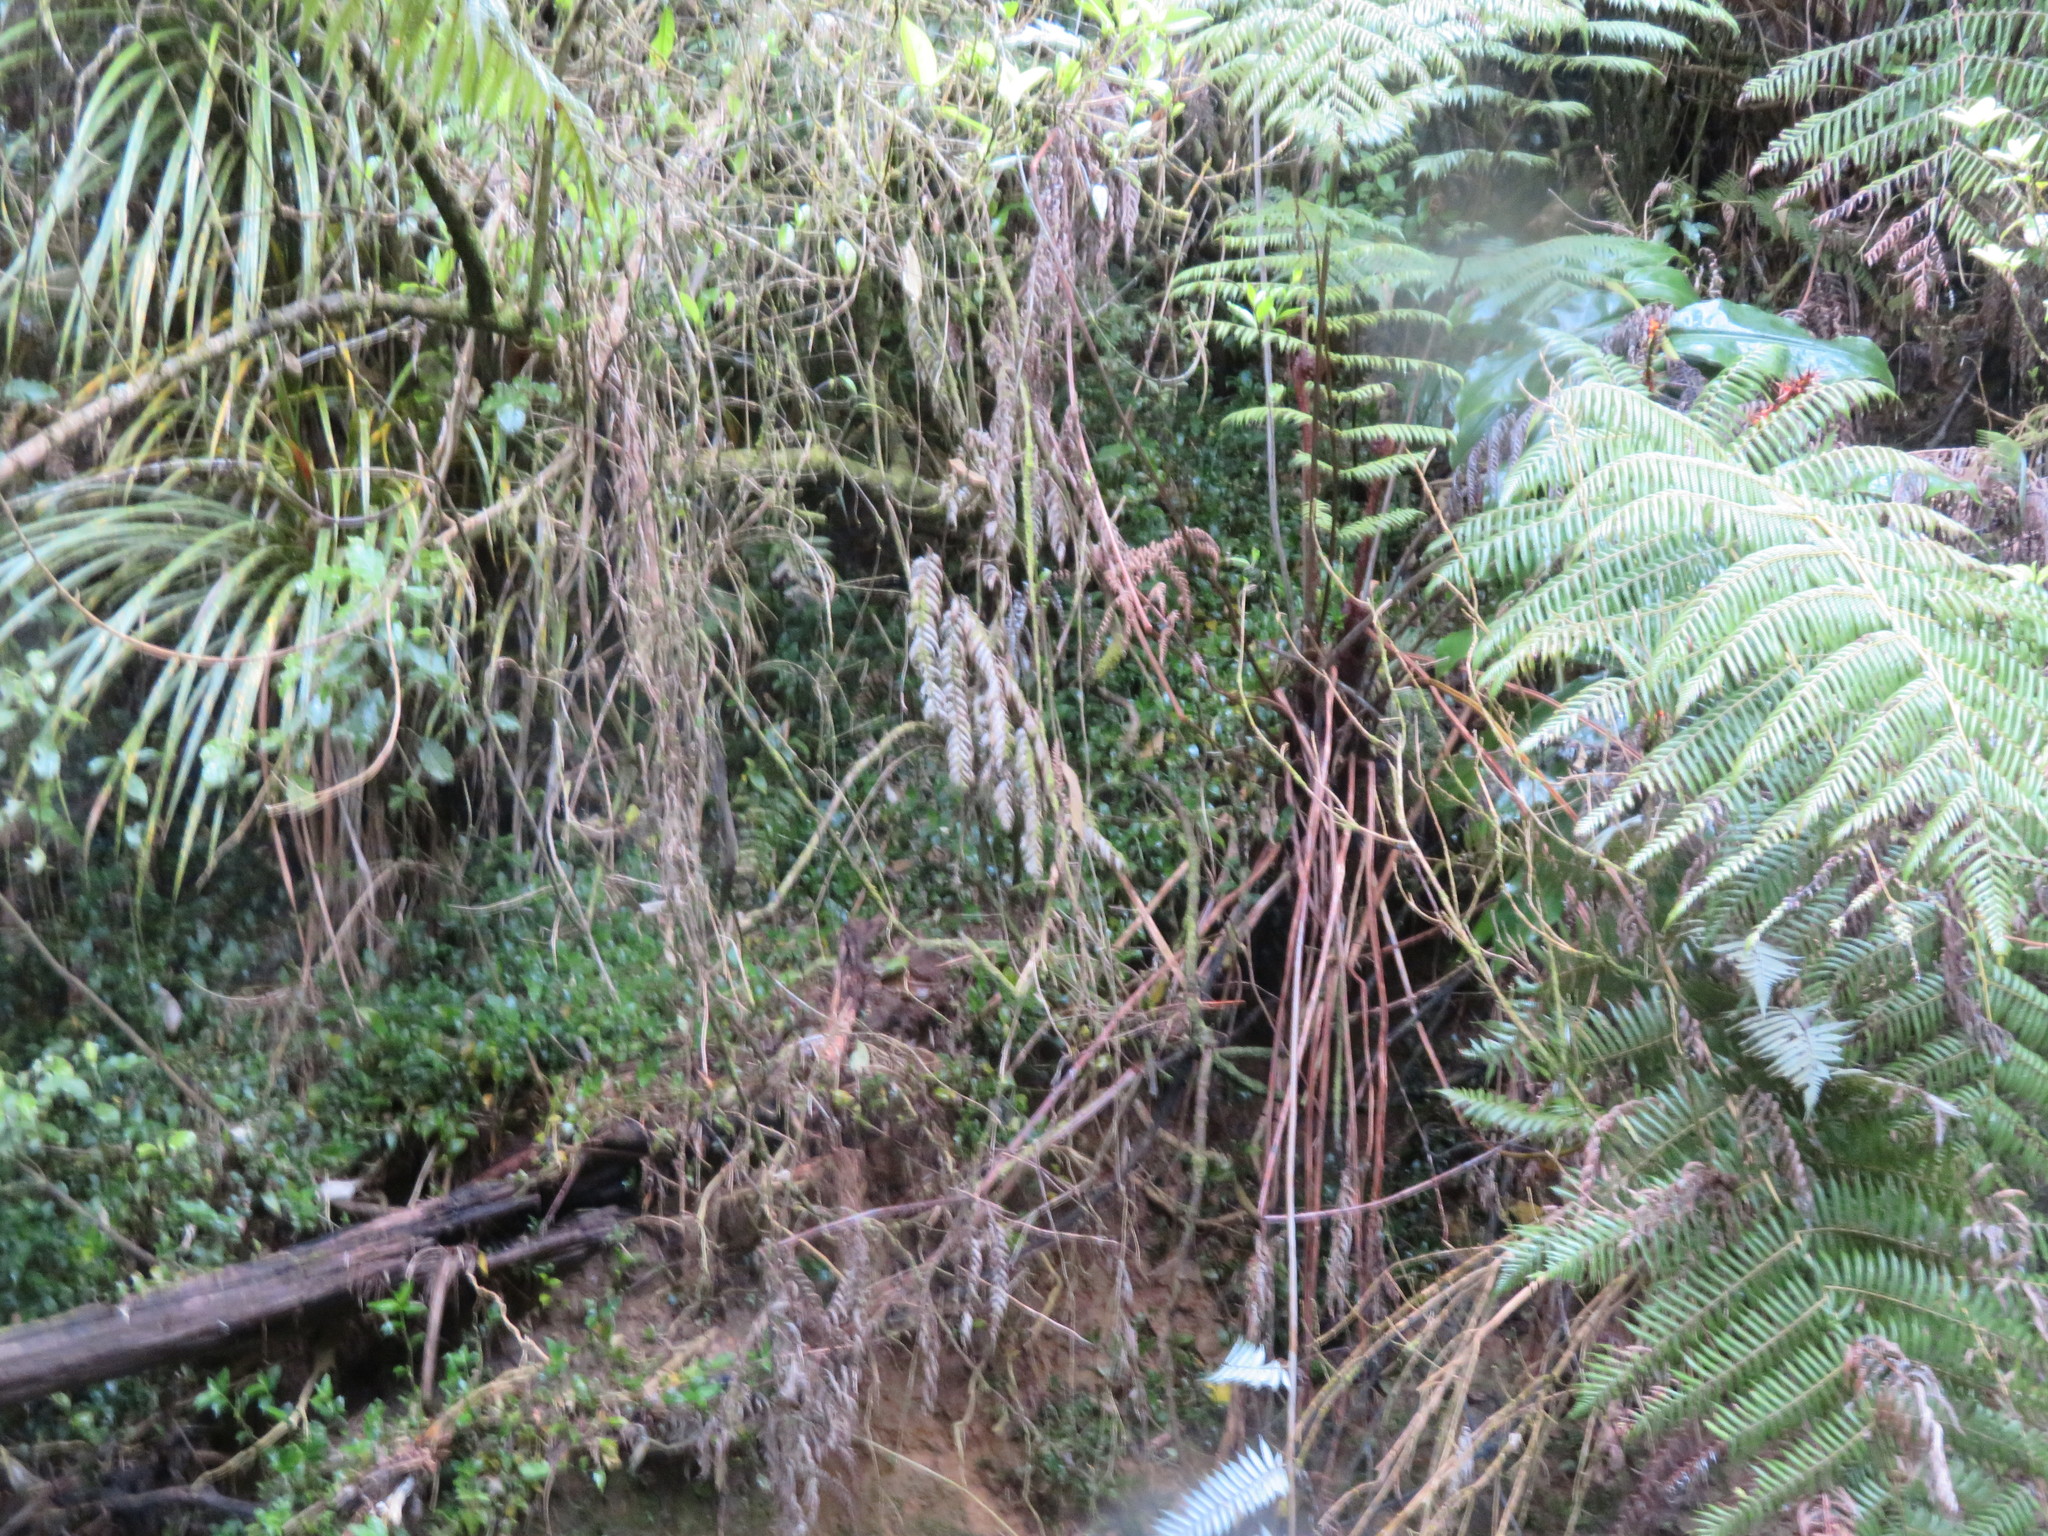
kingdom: Plantae
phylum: Tracheophyta
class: Liliopsida
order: Commelinales
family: Commelinaceae
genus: Tradescantia
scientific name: Tradescantia fluminensis
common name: Wandering-jew
